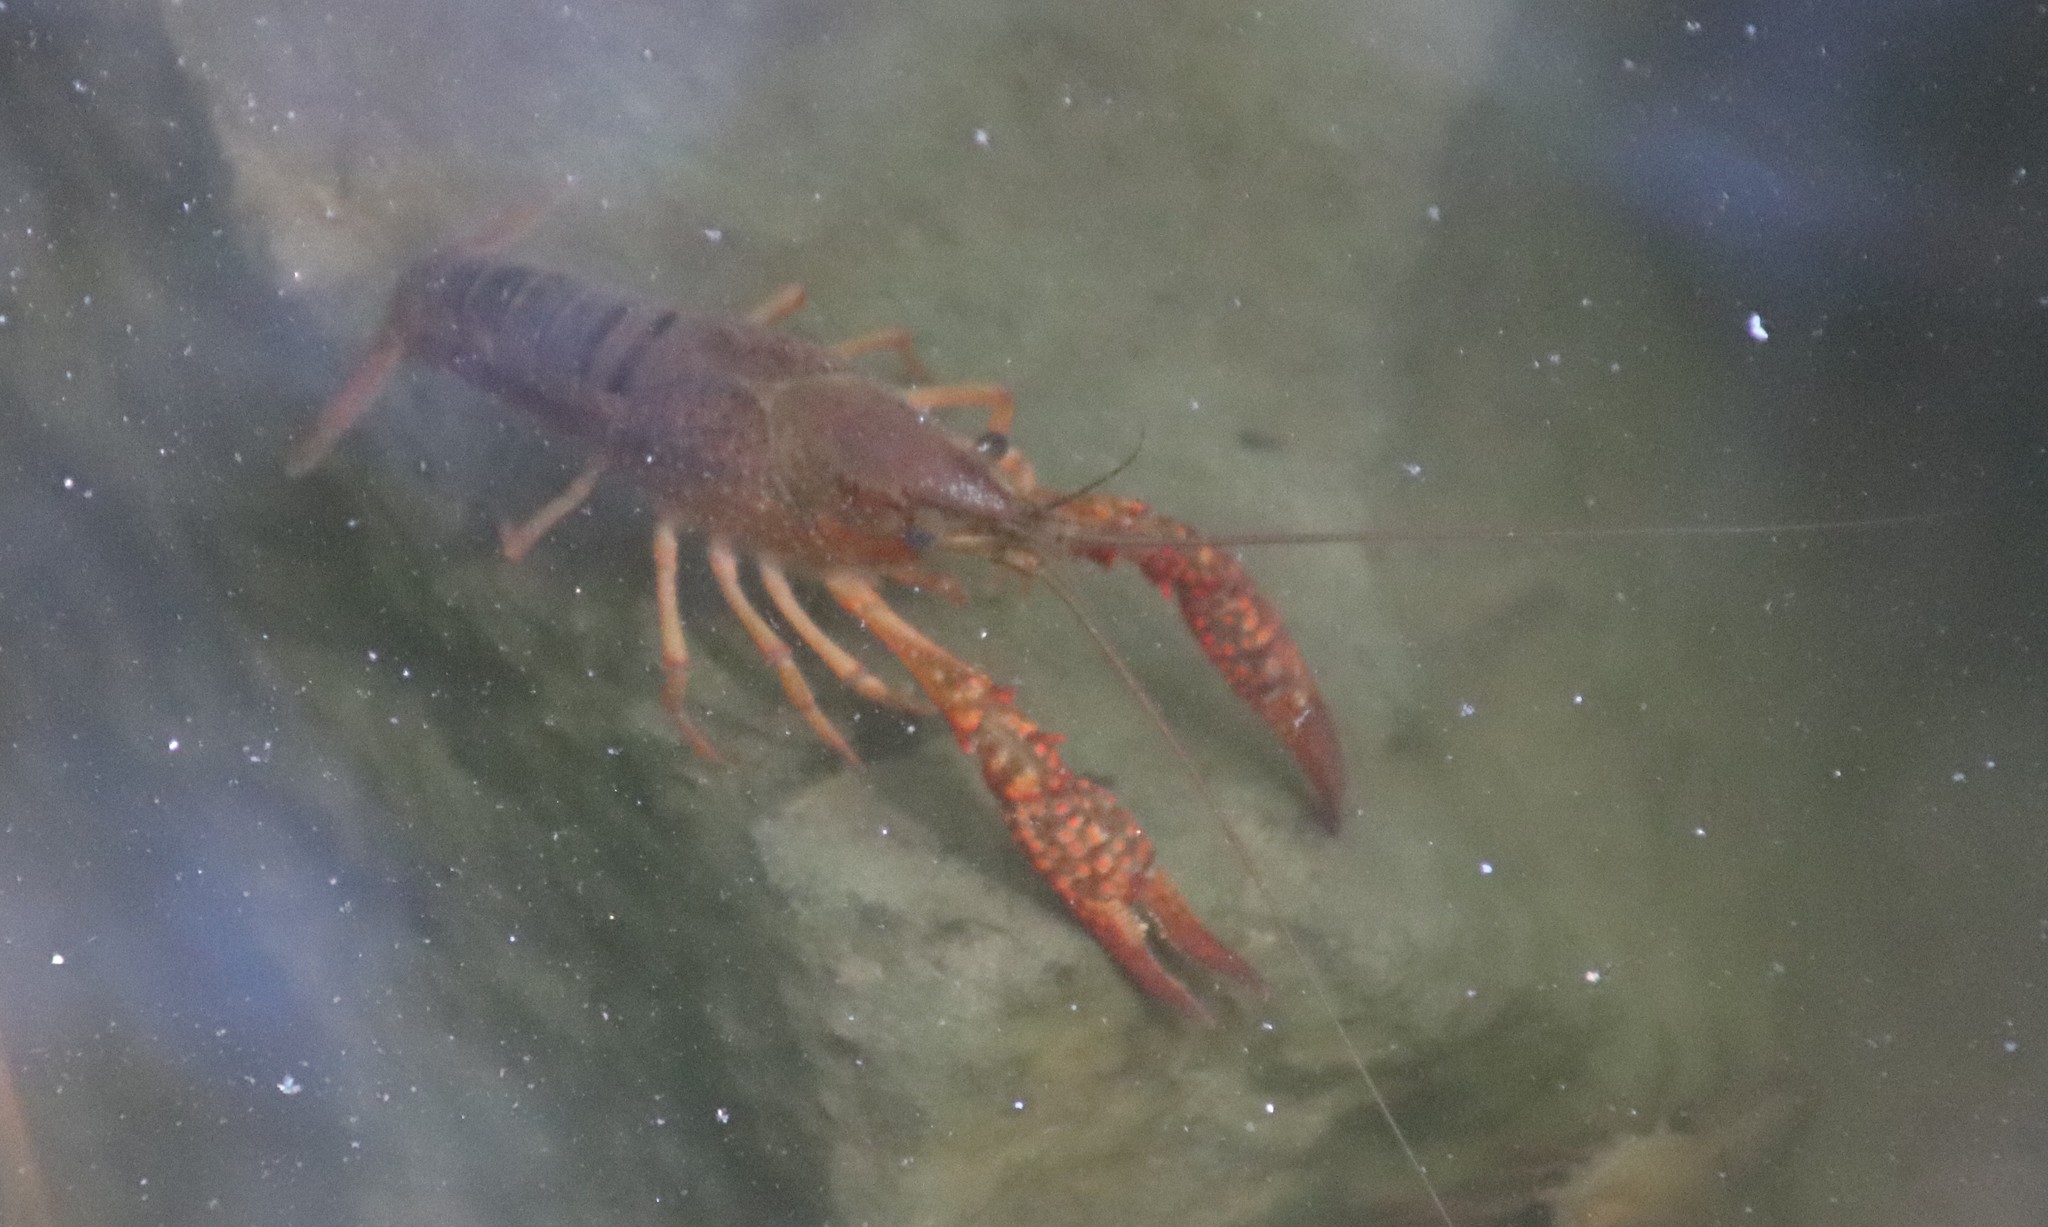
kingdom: Animalia
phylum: Arthropoda
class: Malacostraca
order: Decapoda
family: Cambaridae
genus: Procambarus
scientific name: Procambarus clarkii
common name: Red swamp crayfish
